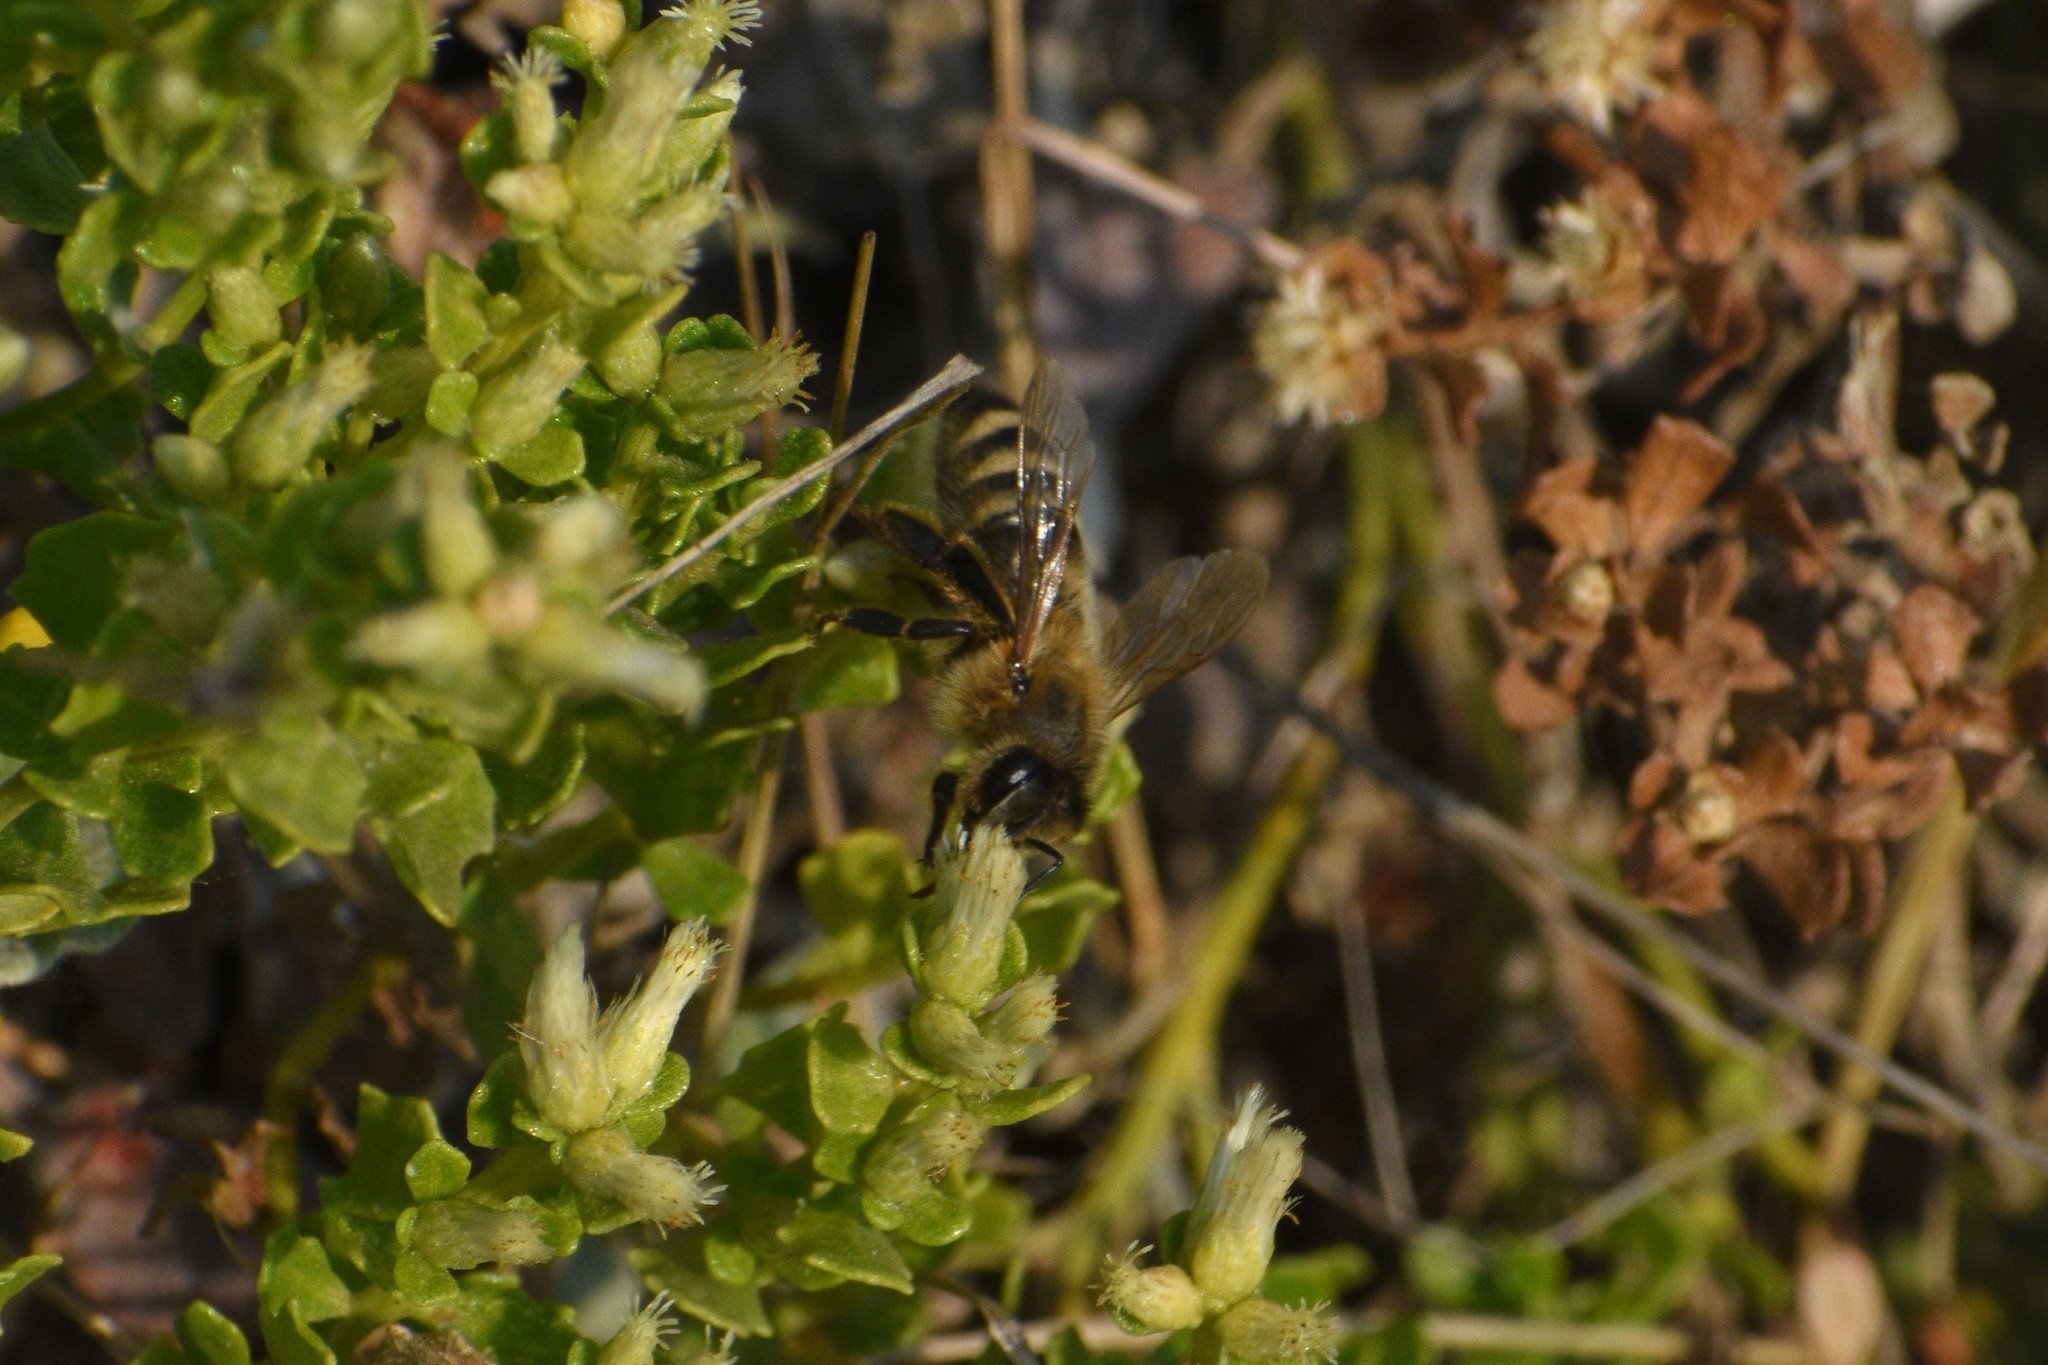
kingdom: Animalia
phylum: Arthropoda
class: Insecta
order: Hymenoptera
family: Apidae
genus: Apis
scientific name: Apis mellifera
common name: Honey bee
